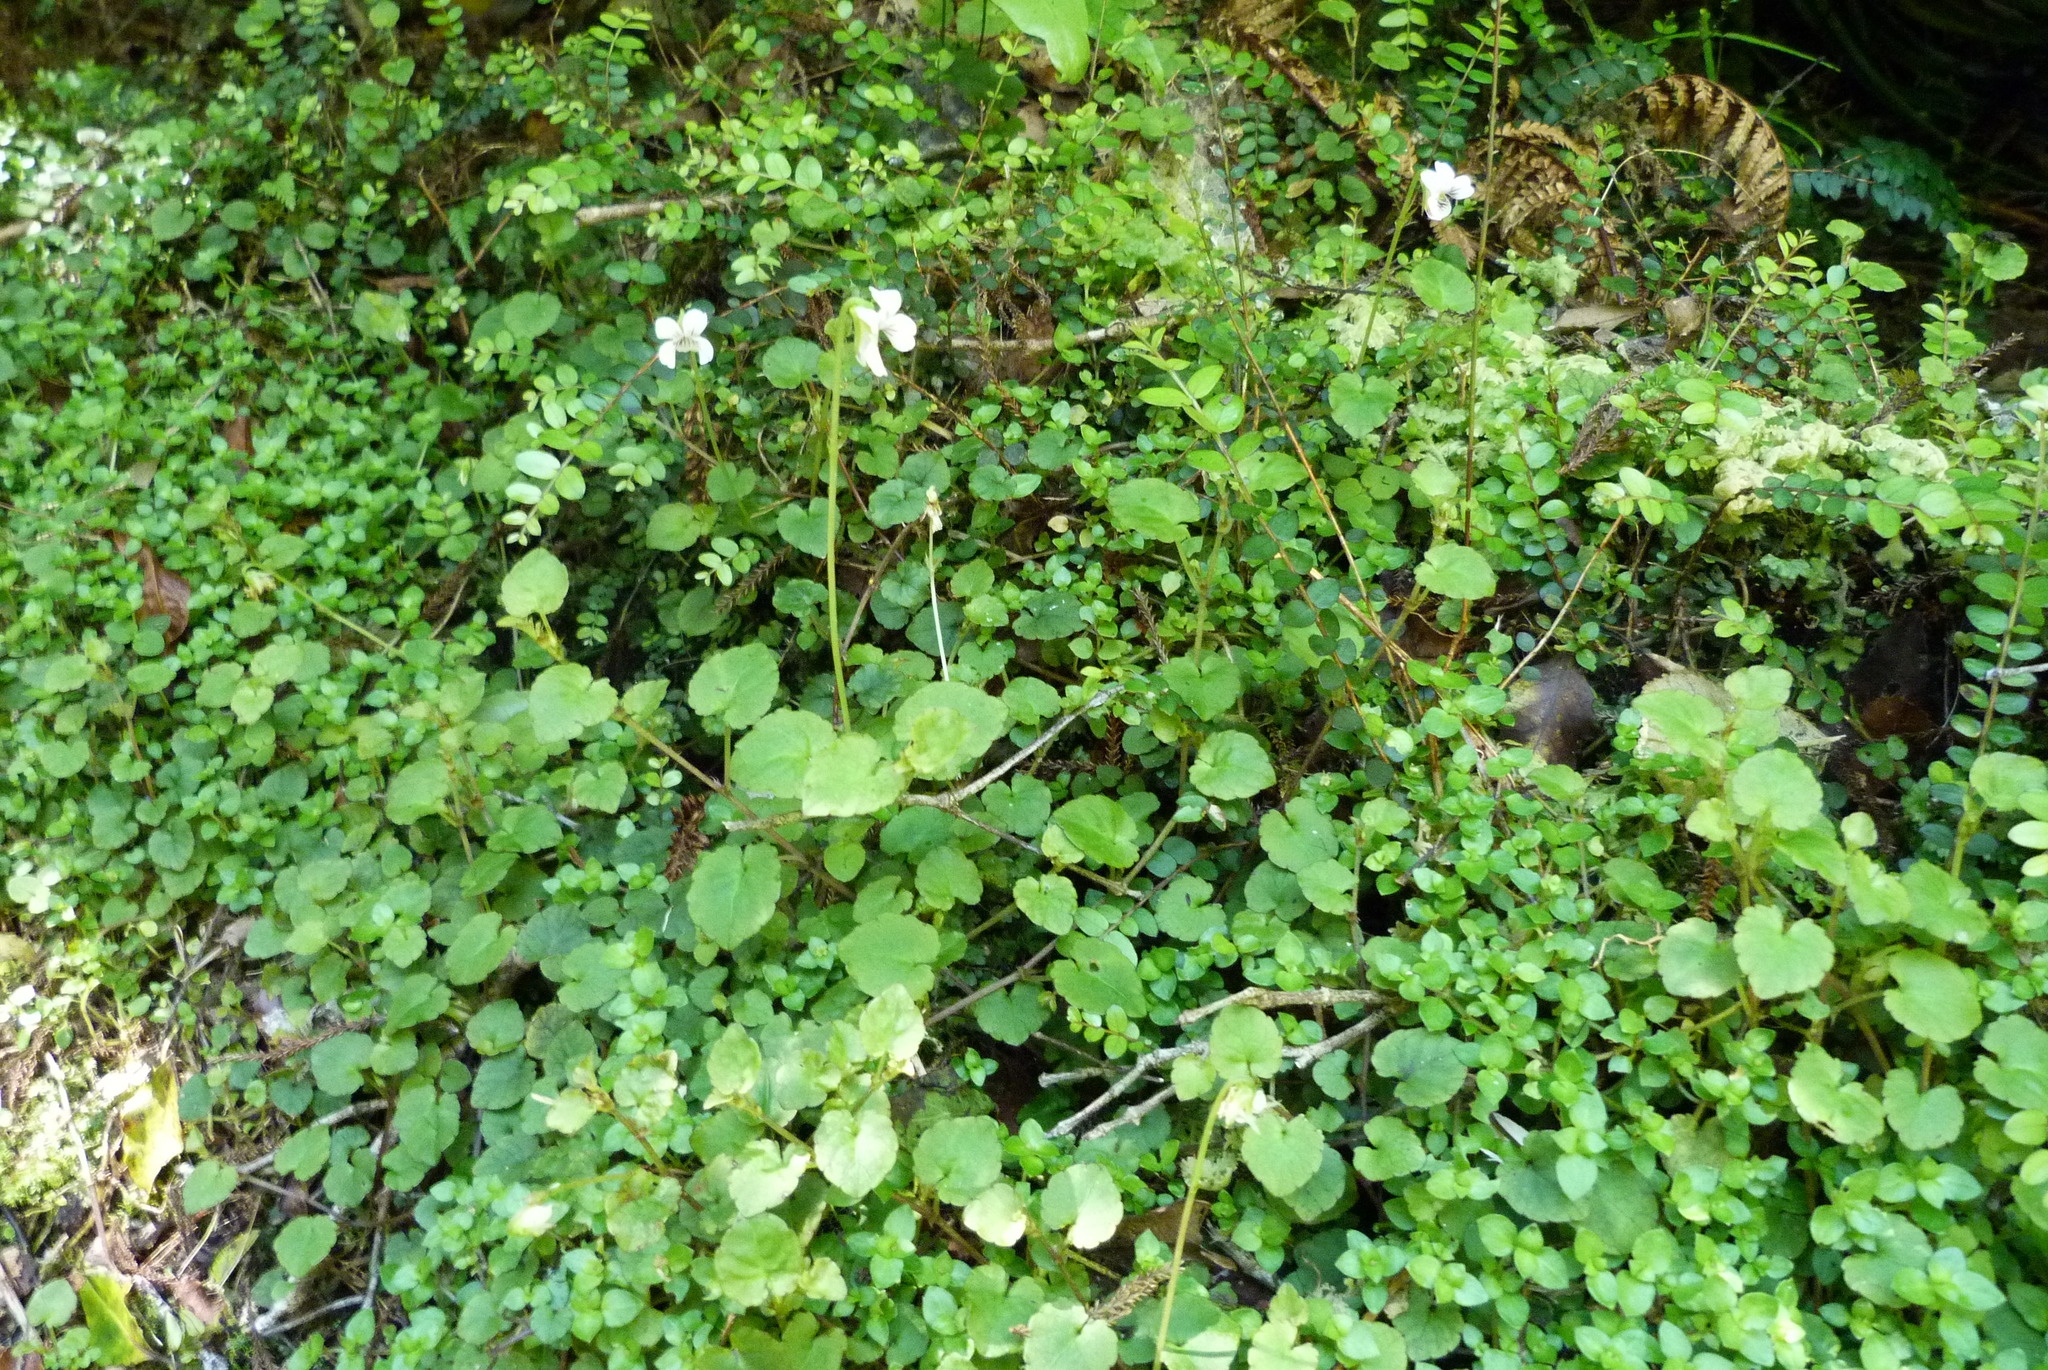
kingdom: Plantae
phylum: Tracheophyta
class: Magnoliopsida
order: Malpighiales
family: Violaceae
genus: Viola
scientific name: Viola filicaulis
